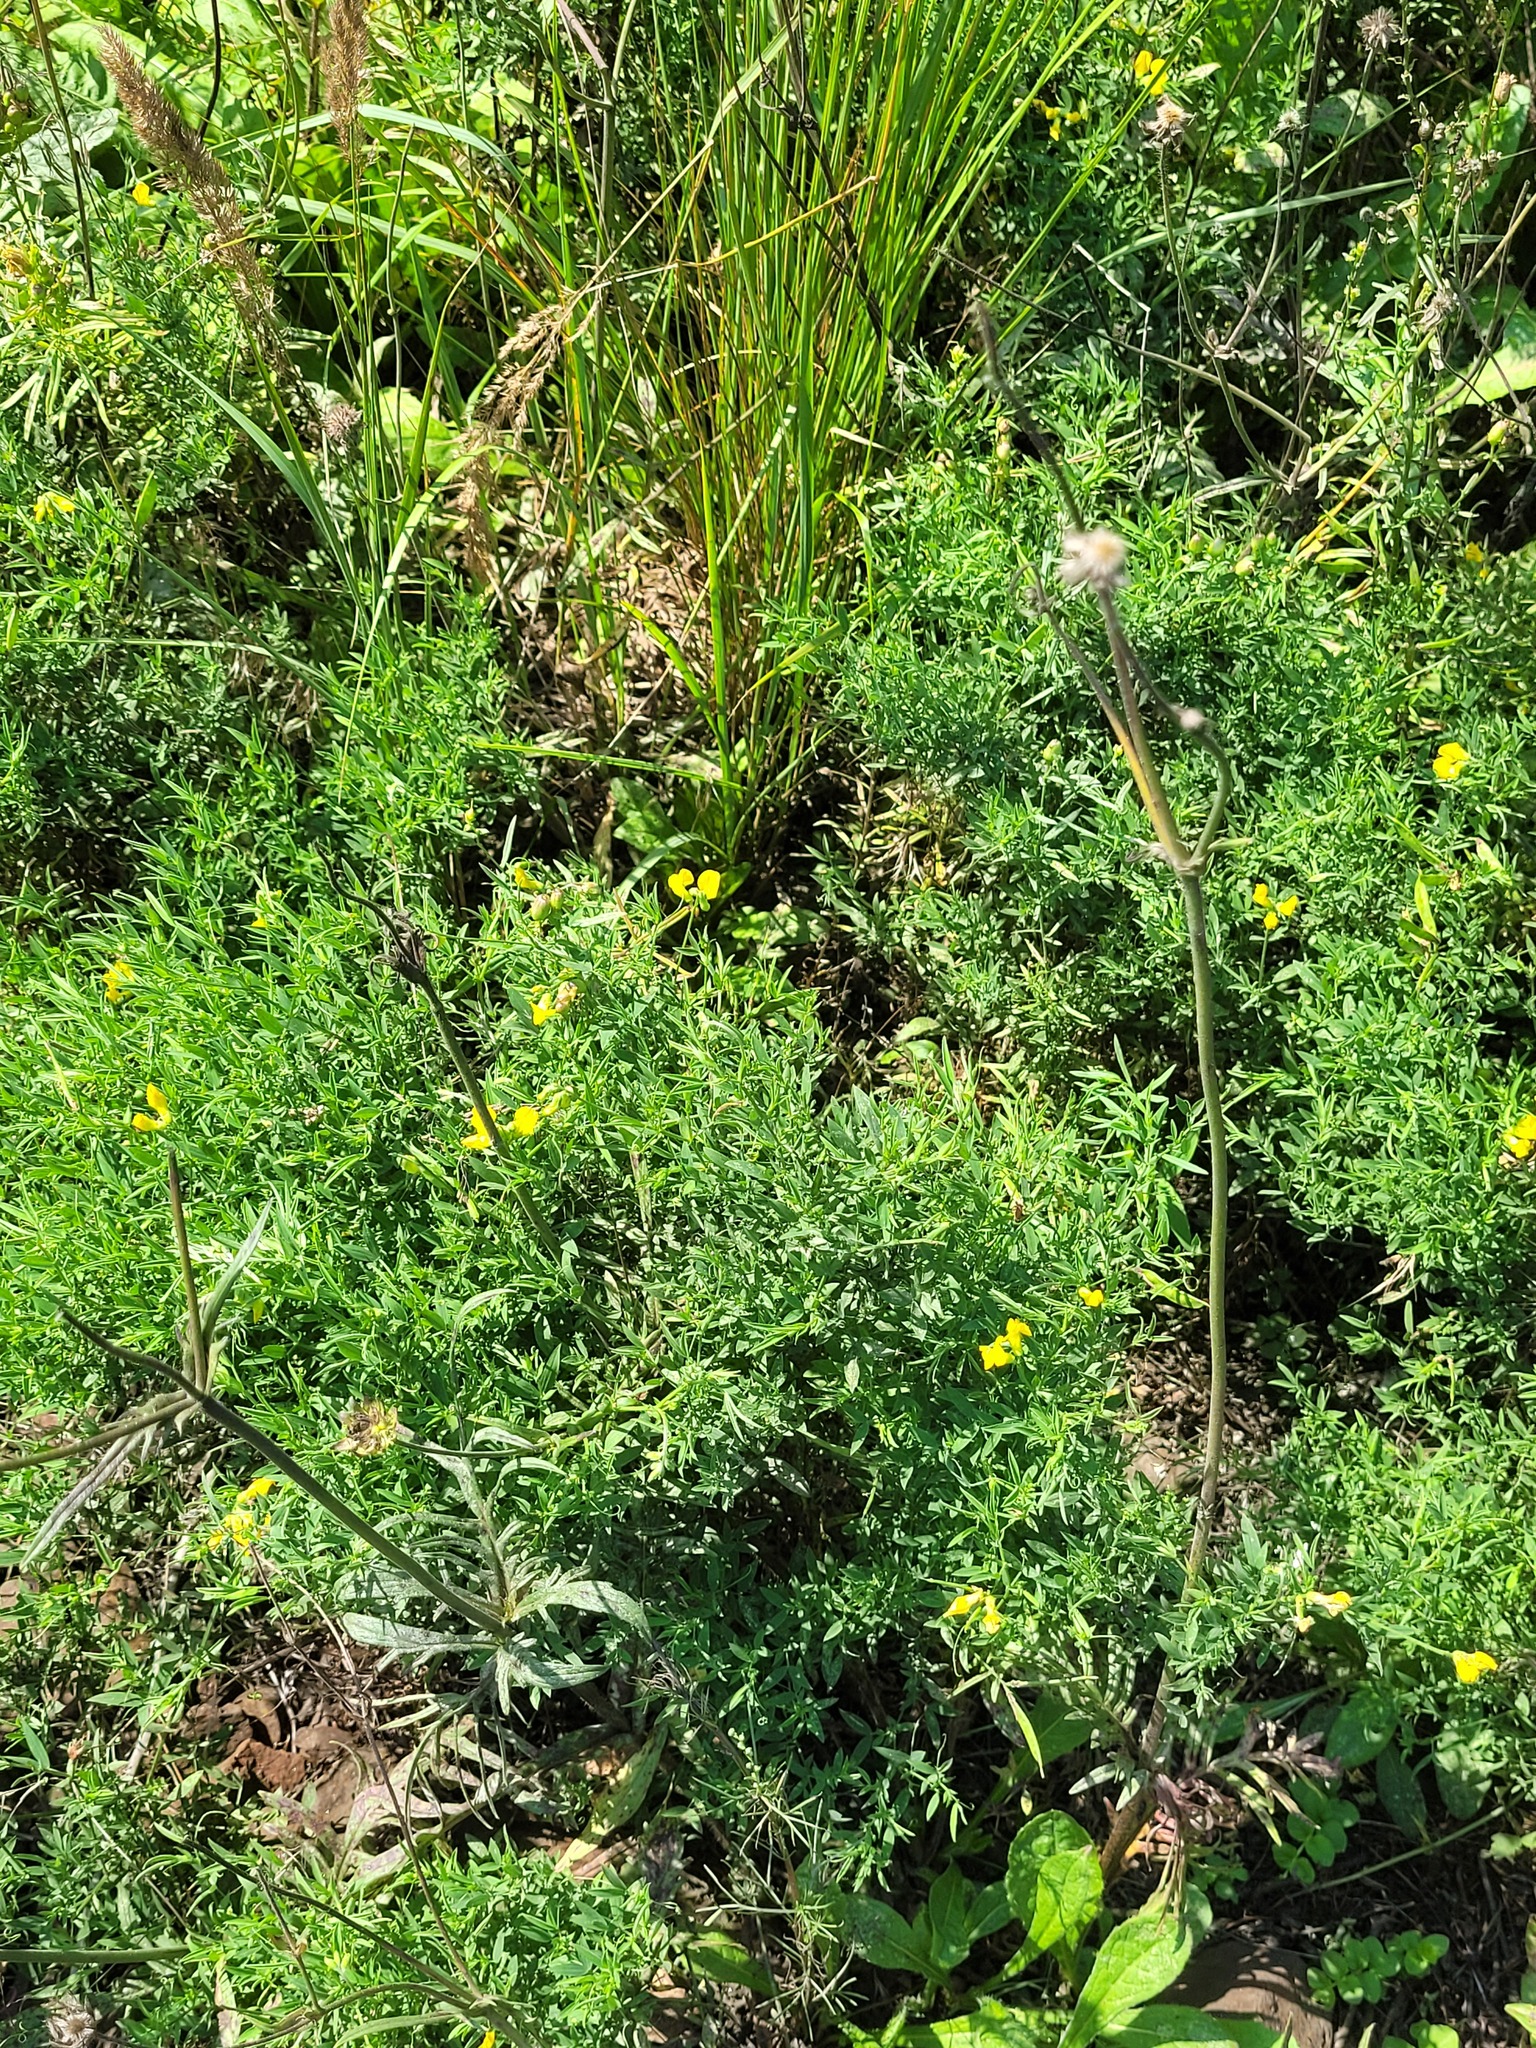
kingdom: Plantae
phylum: Tracheophyta
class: Magnoliopsida
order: Fabales
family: Fabaceae
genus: Lathyrus
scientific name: Lathyrus pratensis
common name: Meadow vetchling
